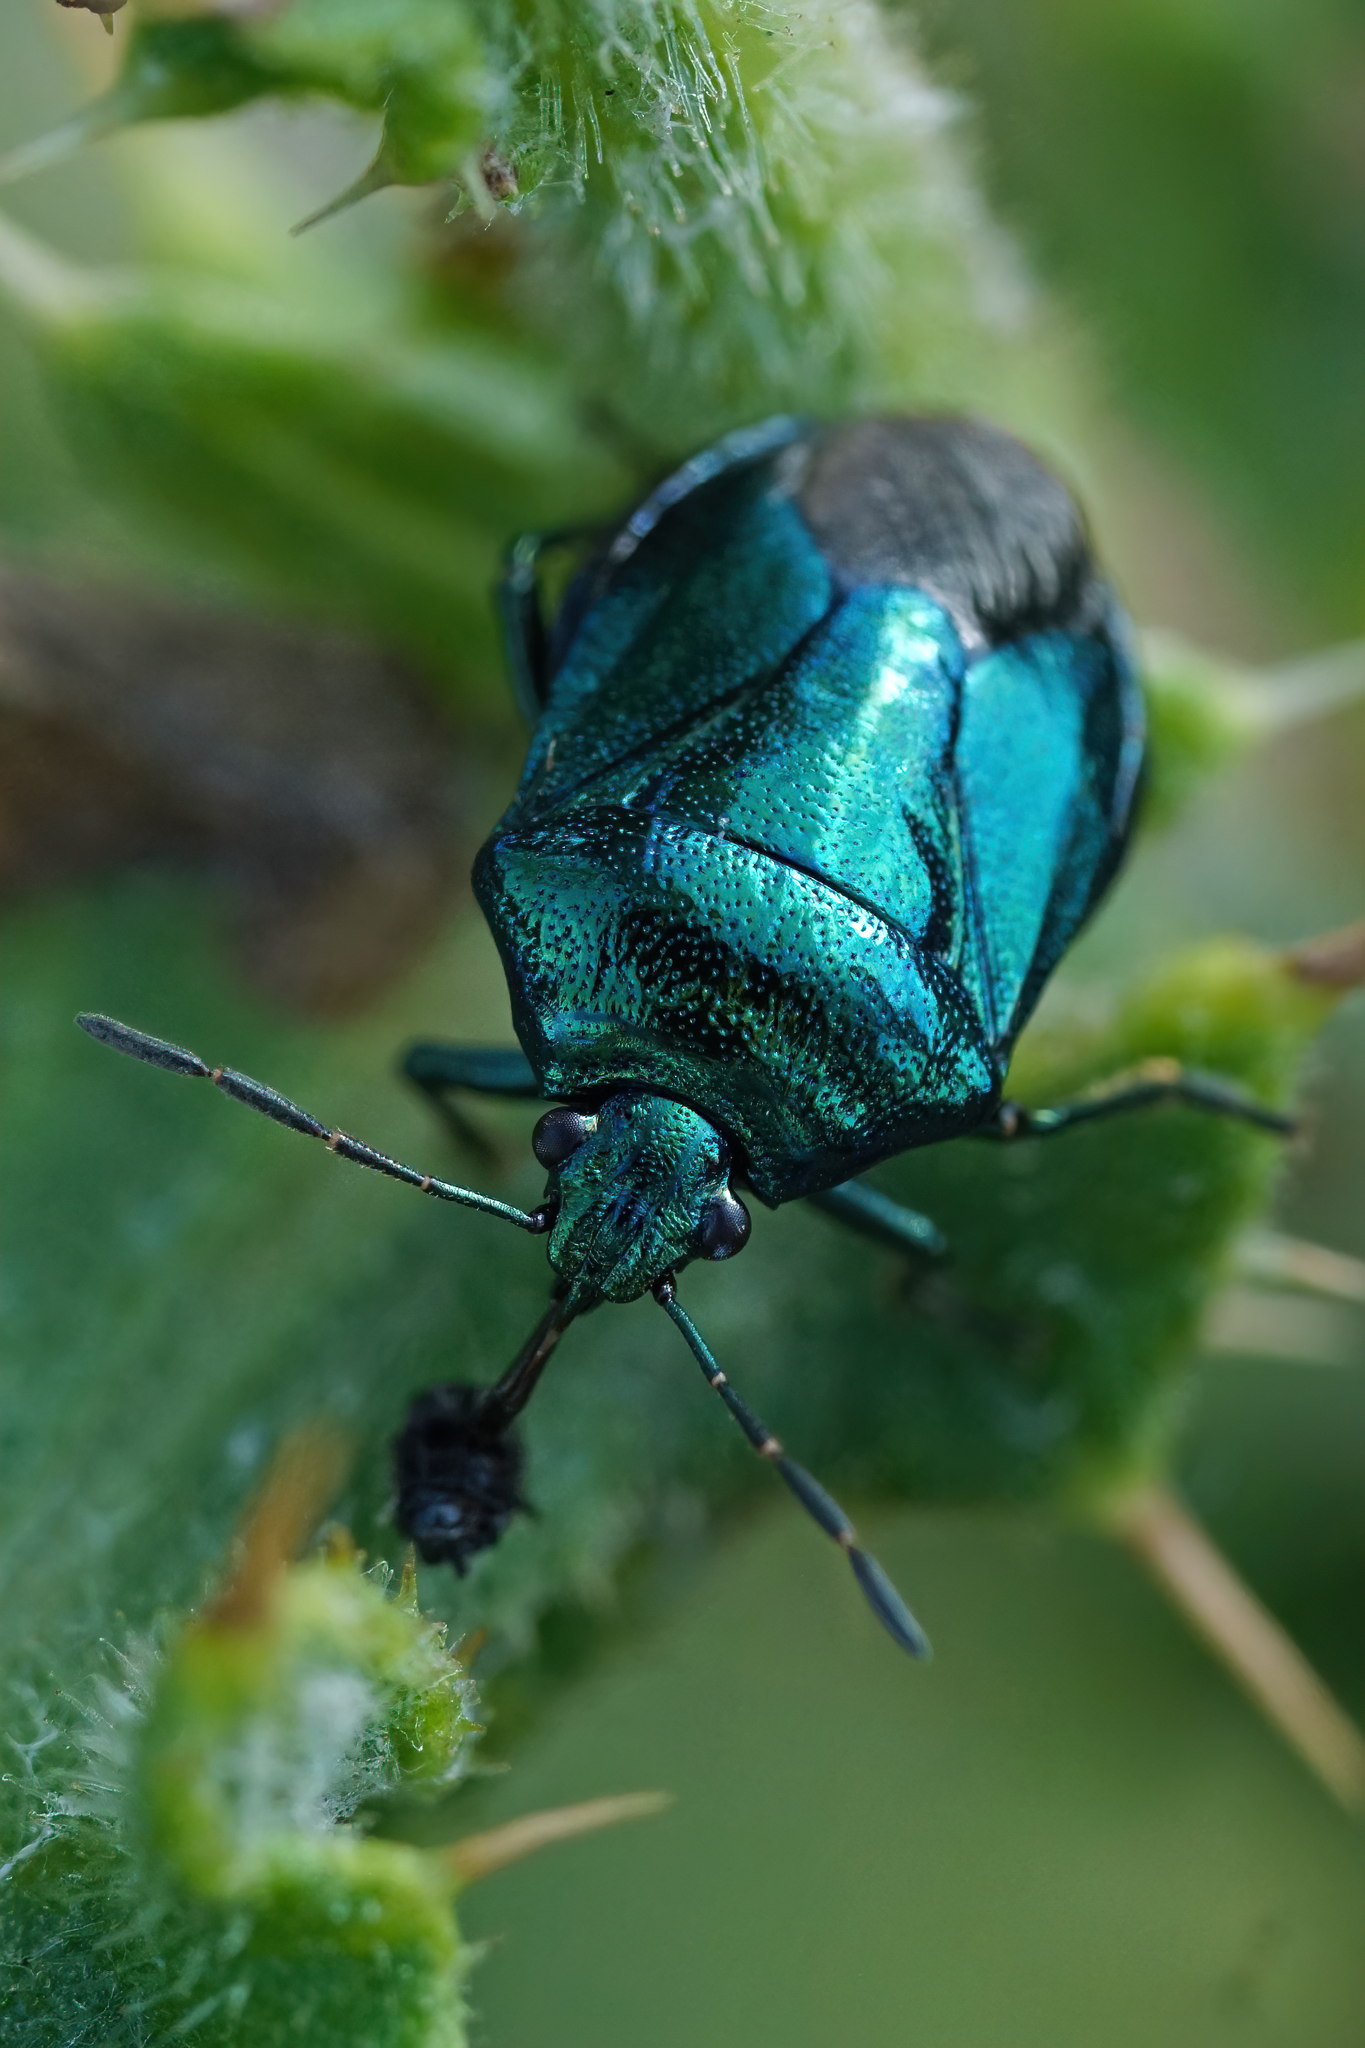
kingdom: Animalia
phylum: Arthropoda
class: Insecta
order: Hemiptera
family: Pentatomidae
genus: Zicrona
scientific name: Zicrona caerulea
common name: Blue shieldbug
